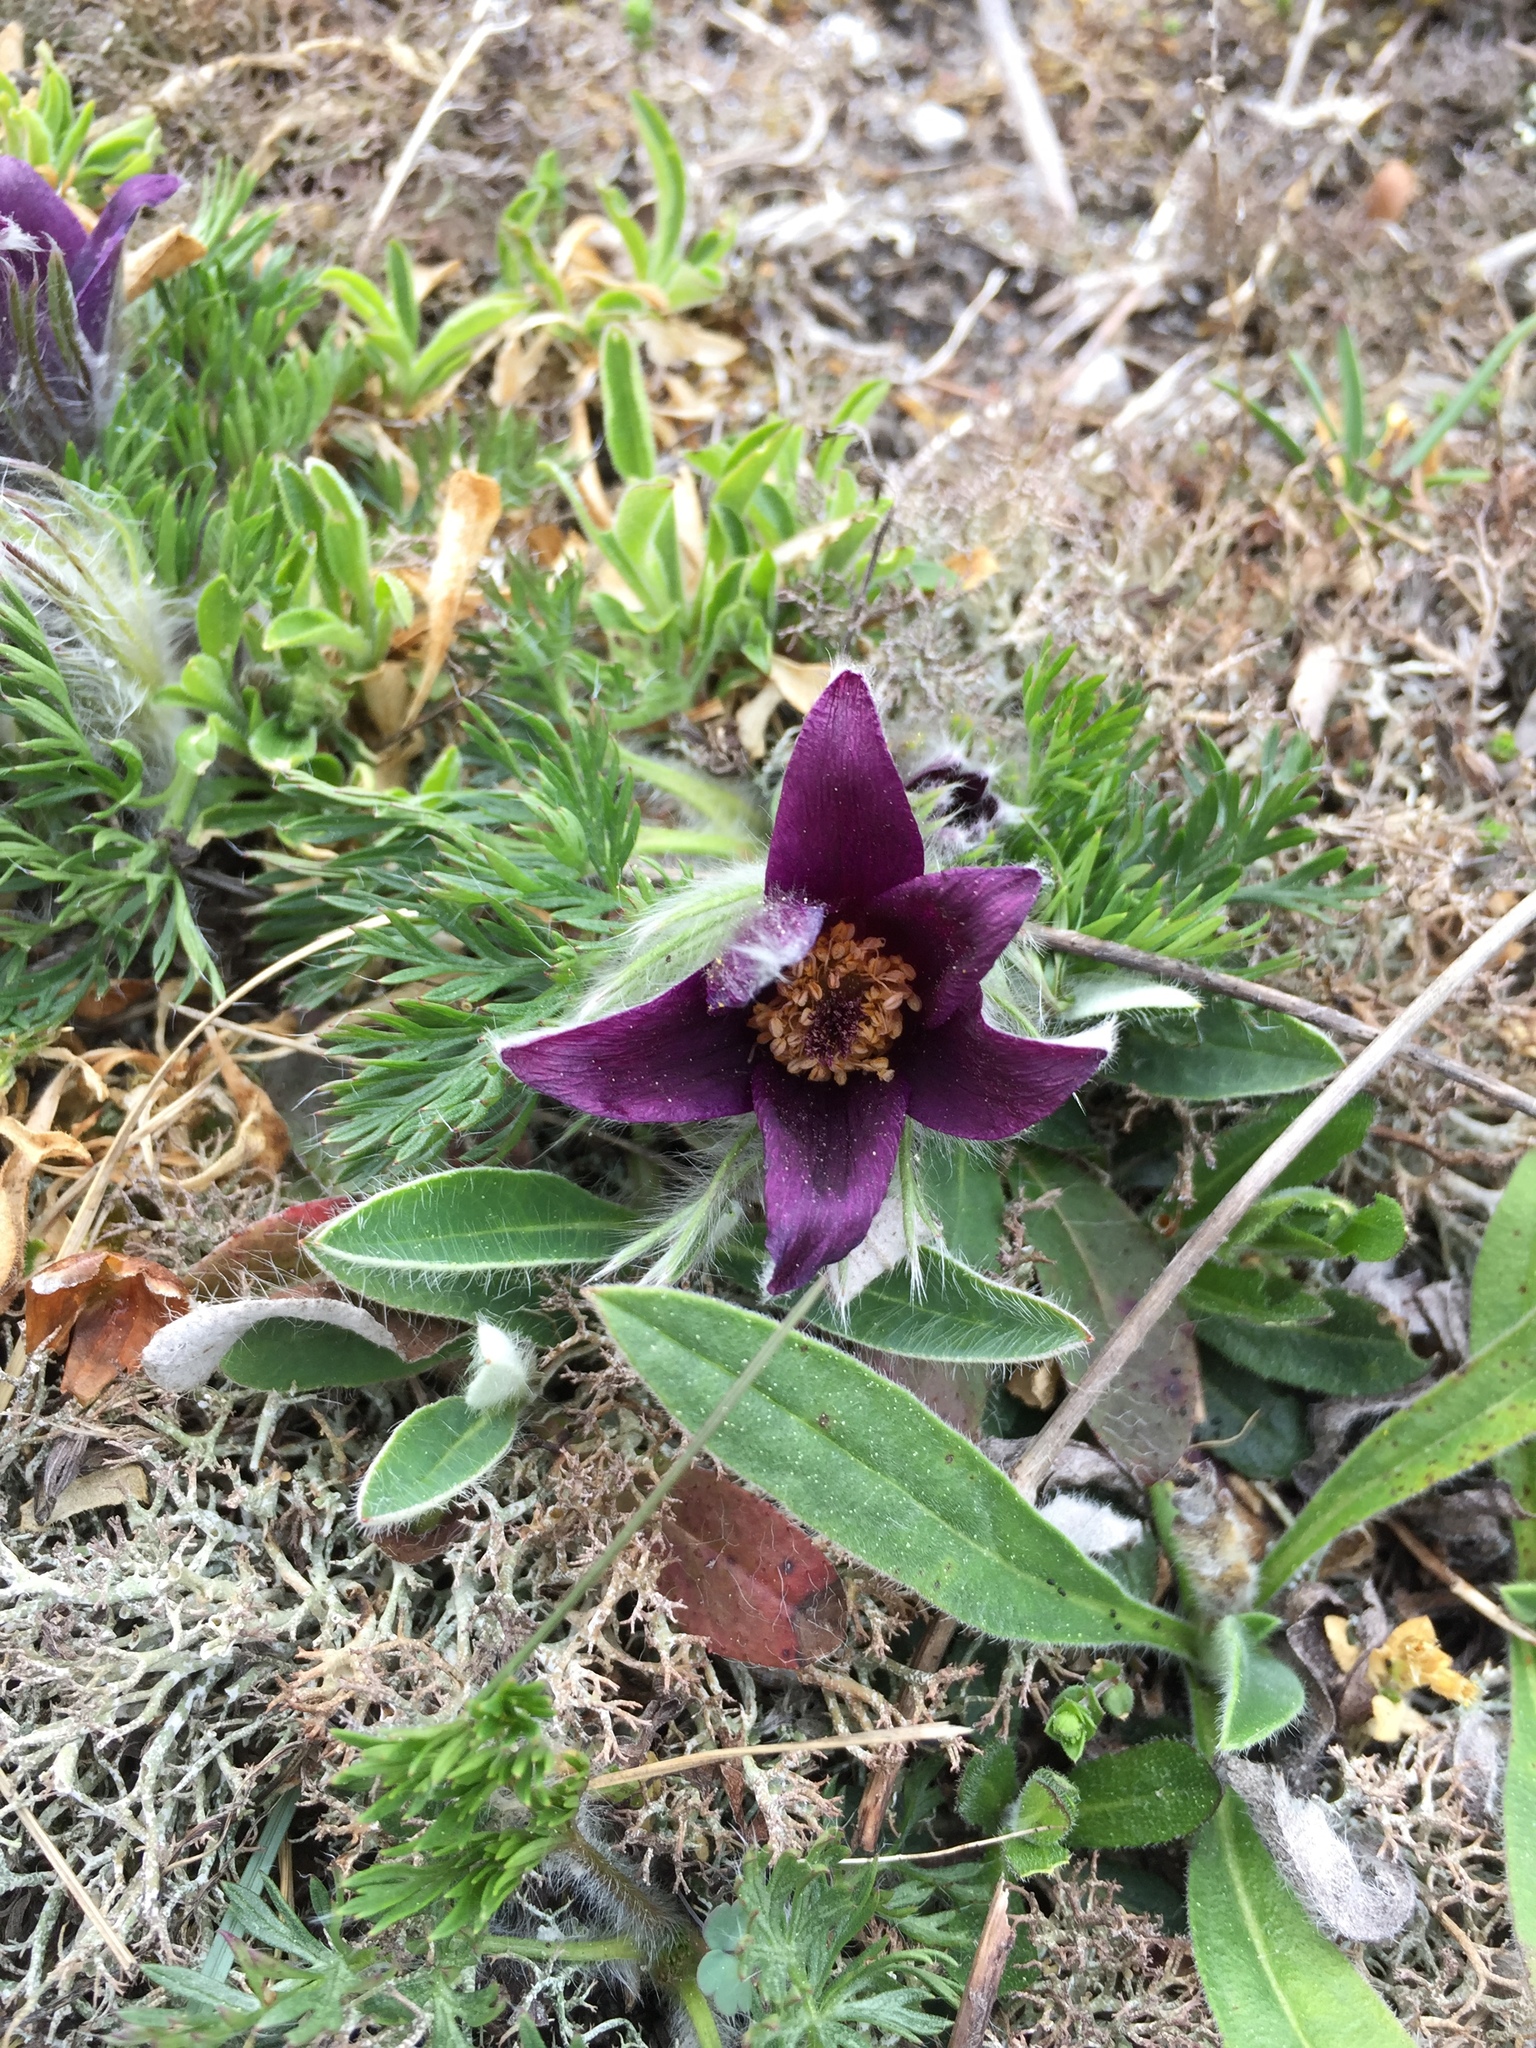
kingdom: Plantae
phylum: Tracheophyta
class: Magnoliopsida
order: Ranunculales
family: Ranunculaceae
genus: Pulsatilla
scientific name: Pulsatilla vulgaris
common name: Pasqueflower
